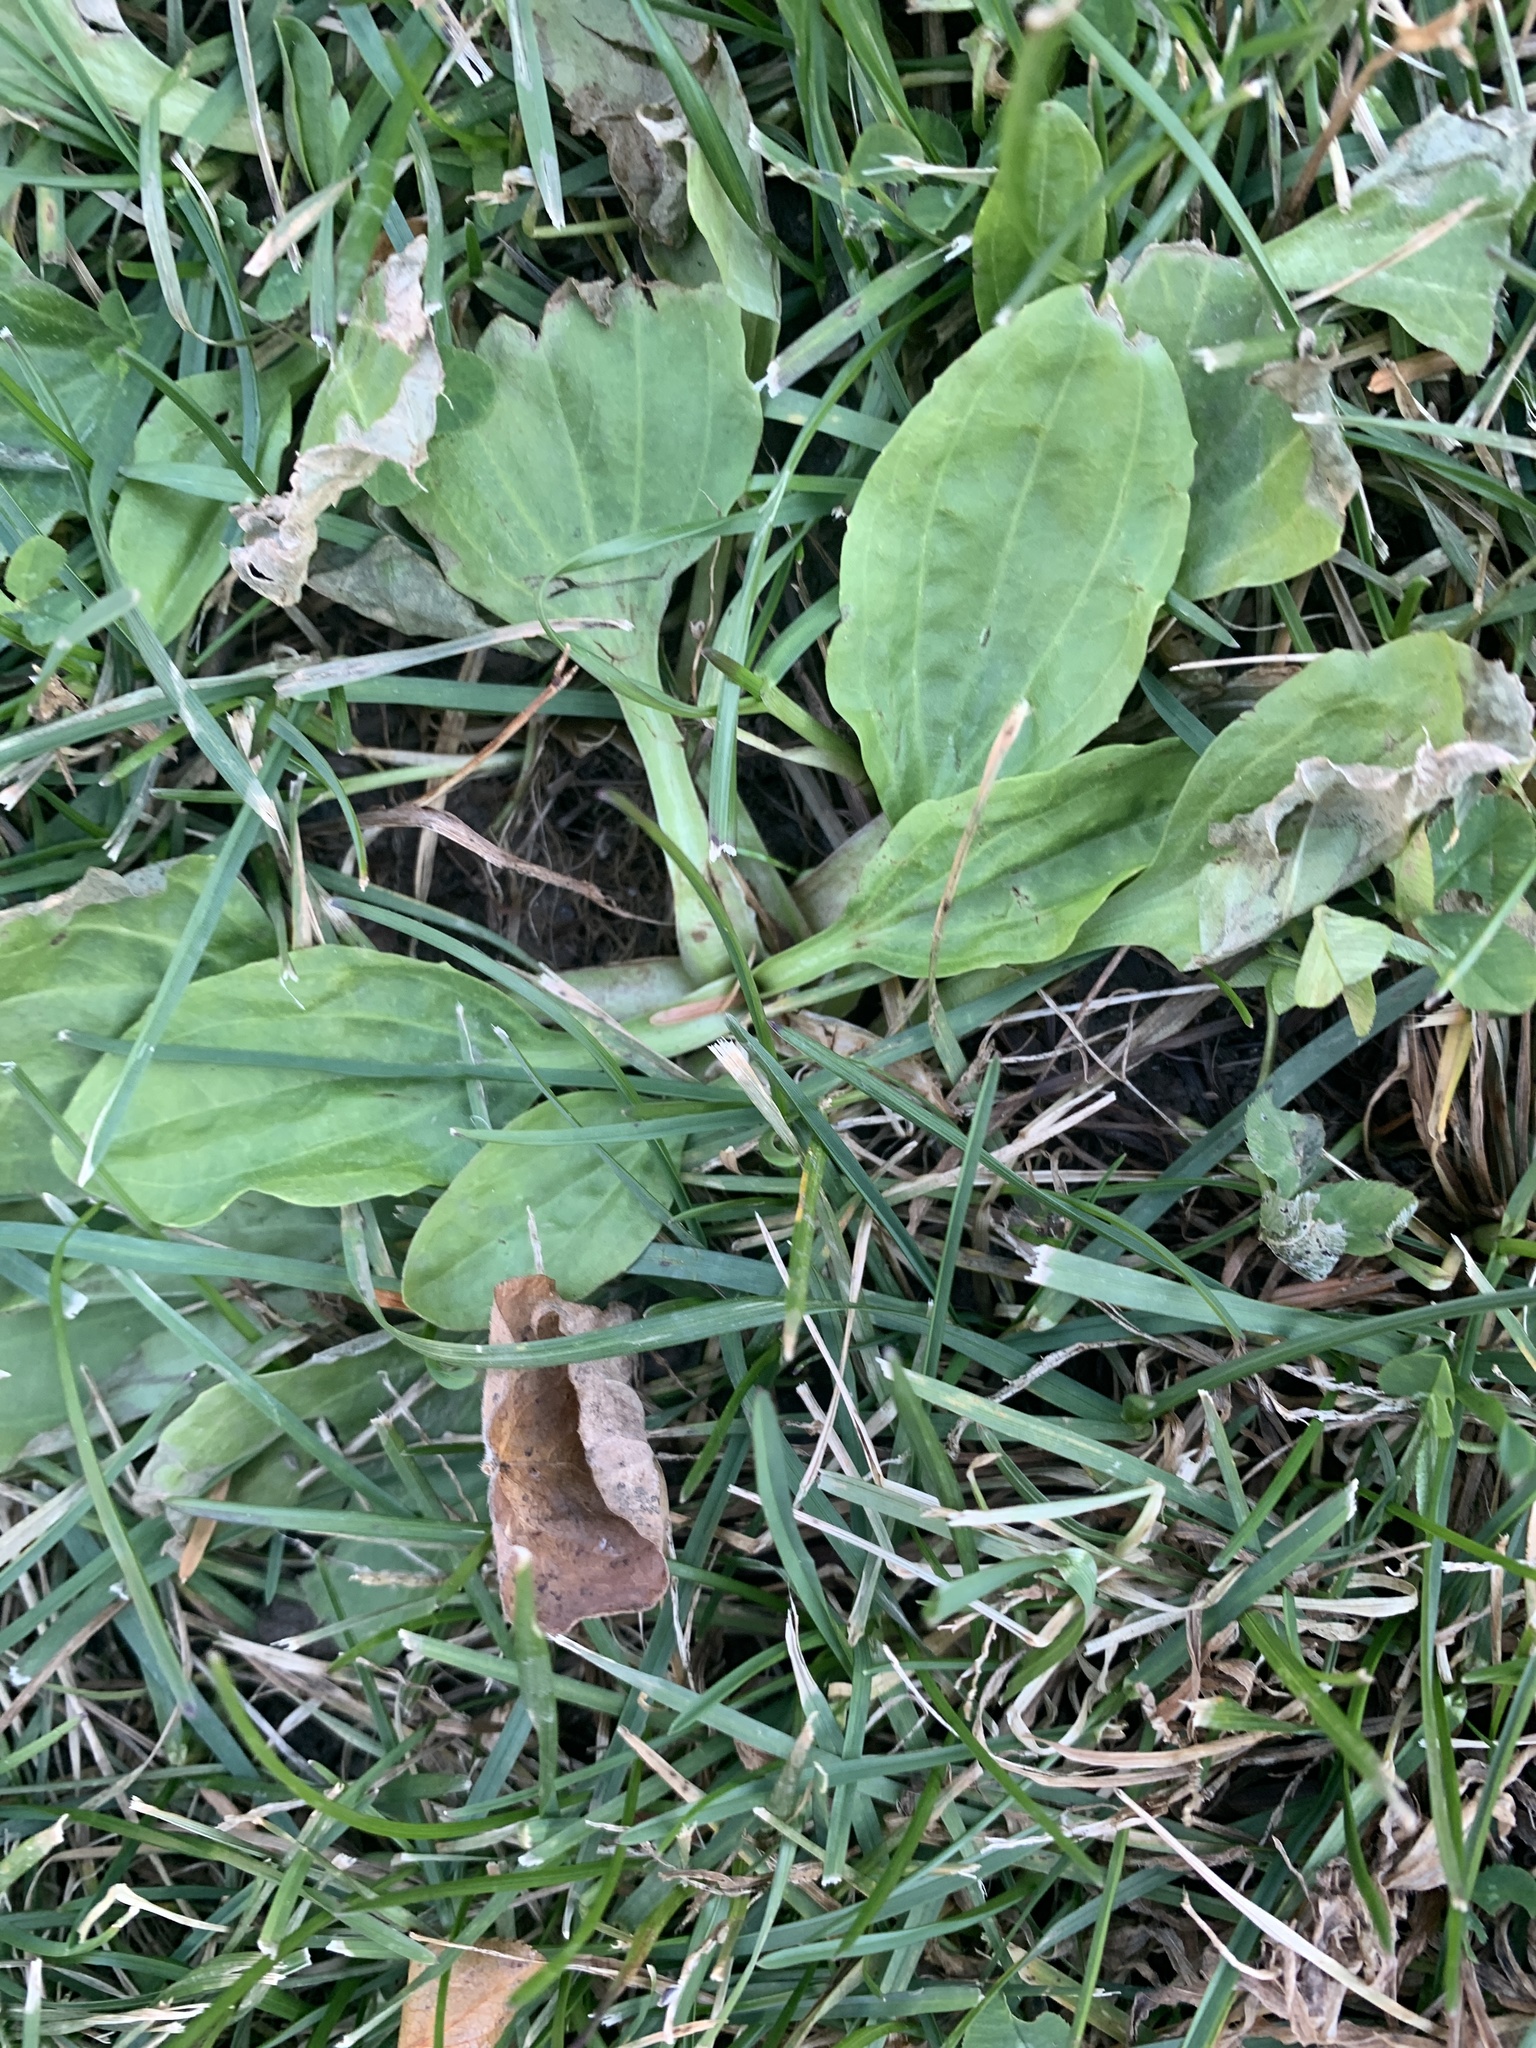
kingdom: Plantae
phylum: Tracheophyta
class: Magnoliopsida
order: Lamiales
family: Plantaginaceae
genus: Plantago
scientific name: Plantago major
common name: Common plantain
